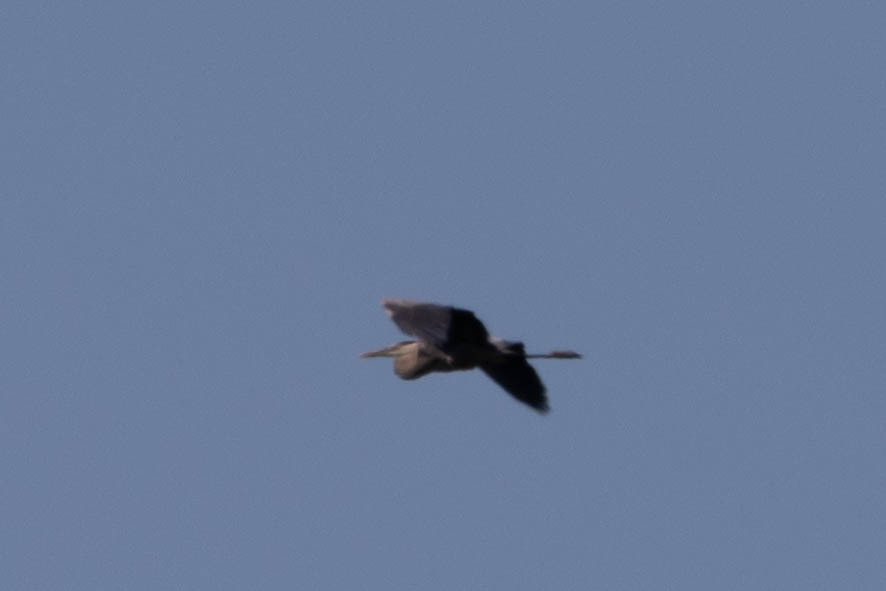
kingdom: Animalia
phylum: Chordata
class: Aves
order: Pelecaniformes
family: Ardeidae
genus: Ardea
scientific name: Ardea herodias
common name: Great blue heron
